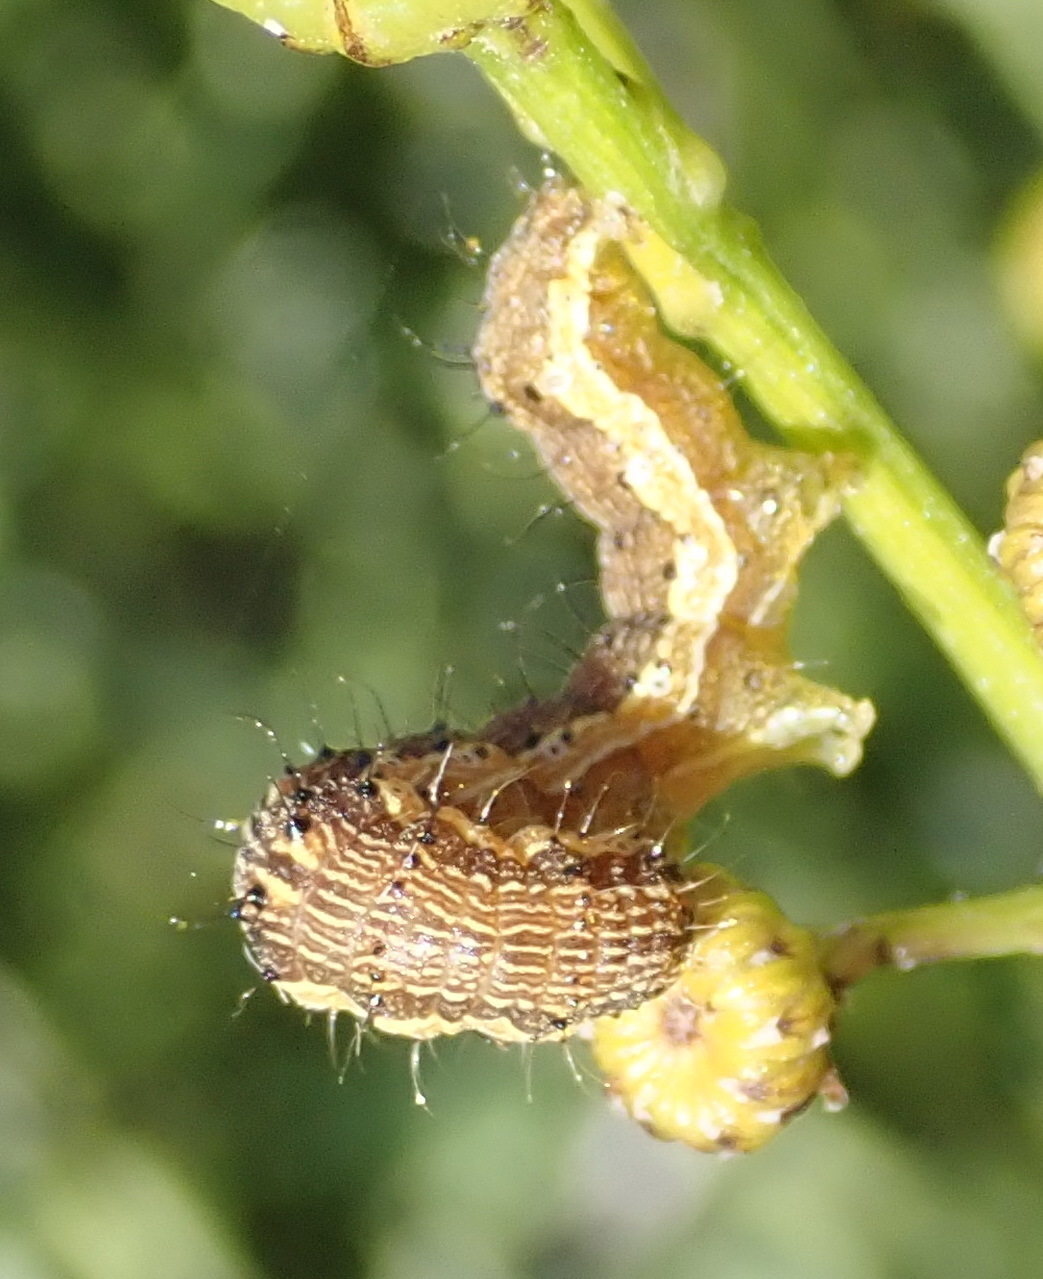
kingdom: Animalia
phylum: Arthropoda
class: Insecta
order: Lepidoptera
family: Noctuidae
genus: Helicoverpa
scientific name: Helicoverpa armigera
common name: Cotton bollworm
